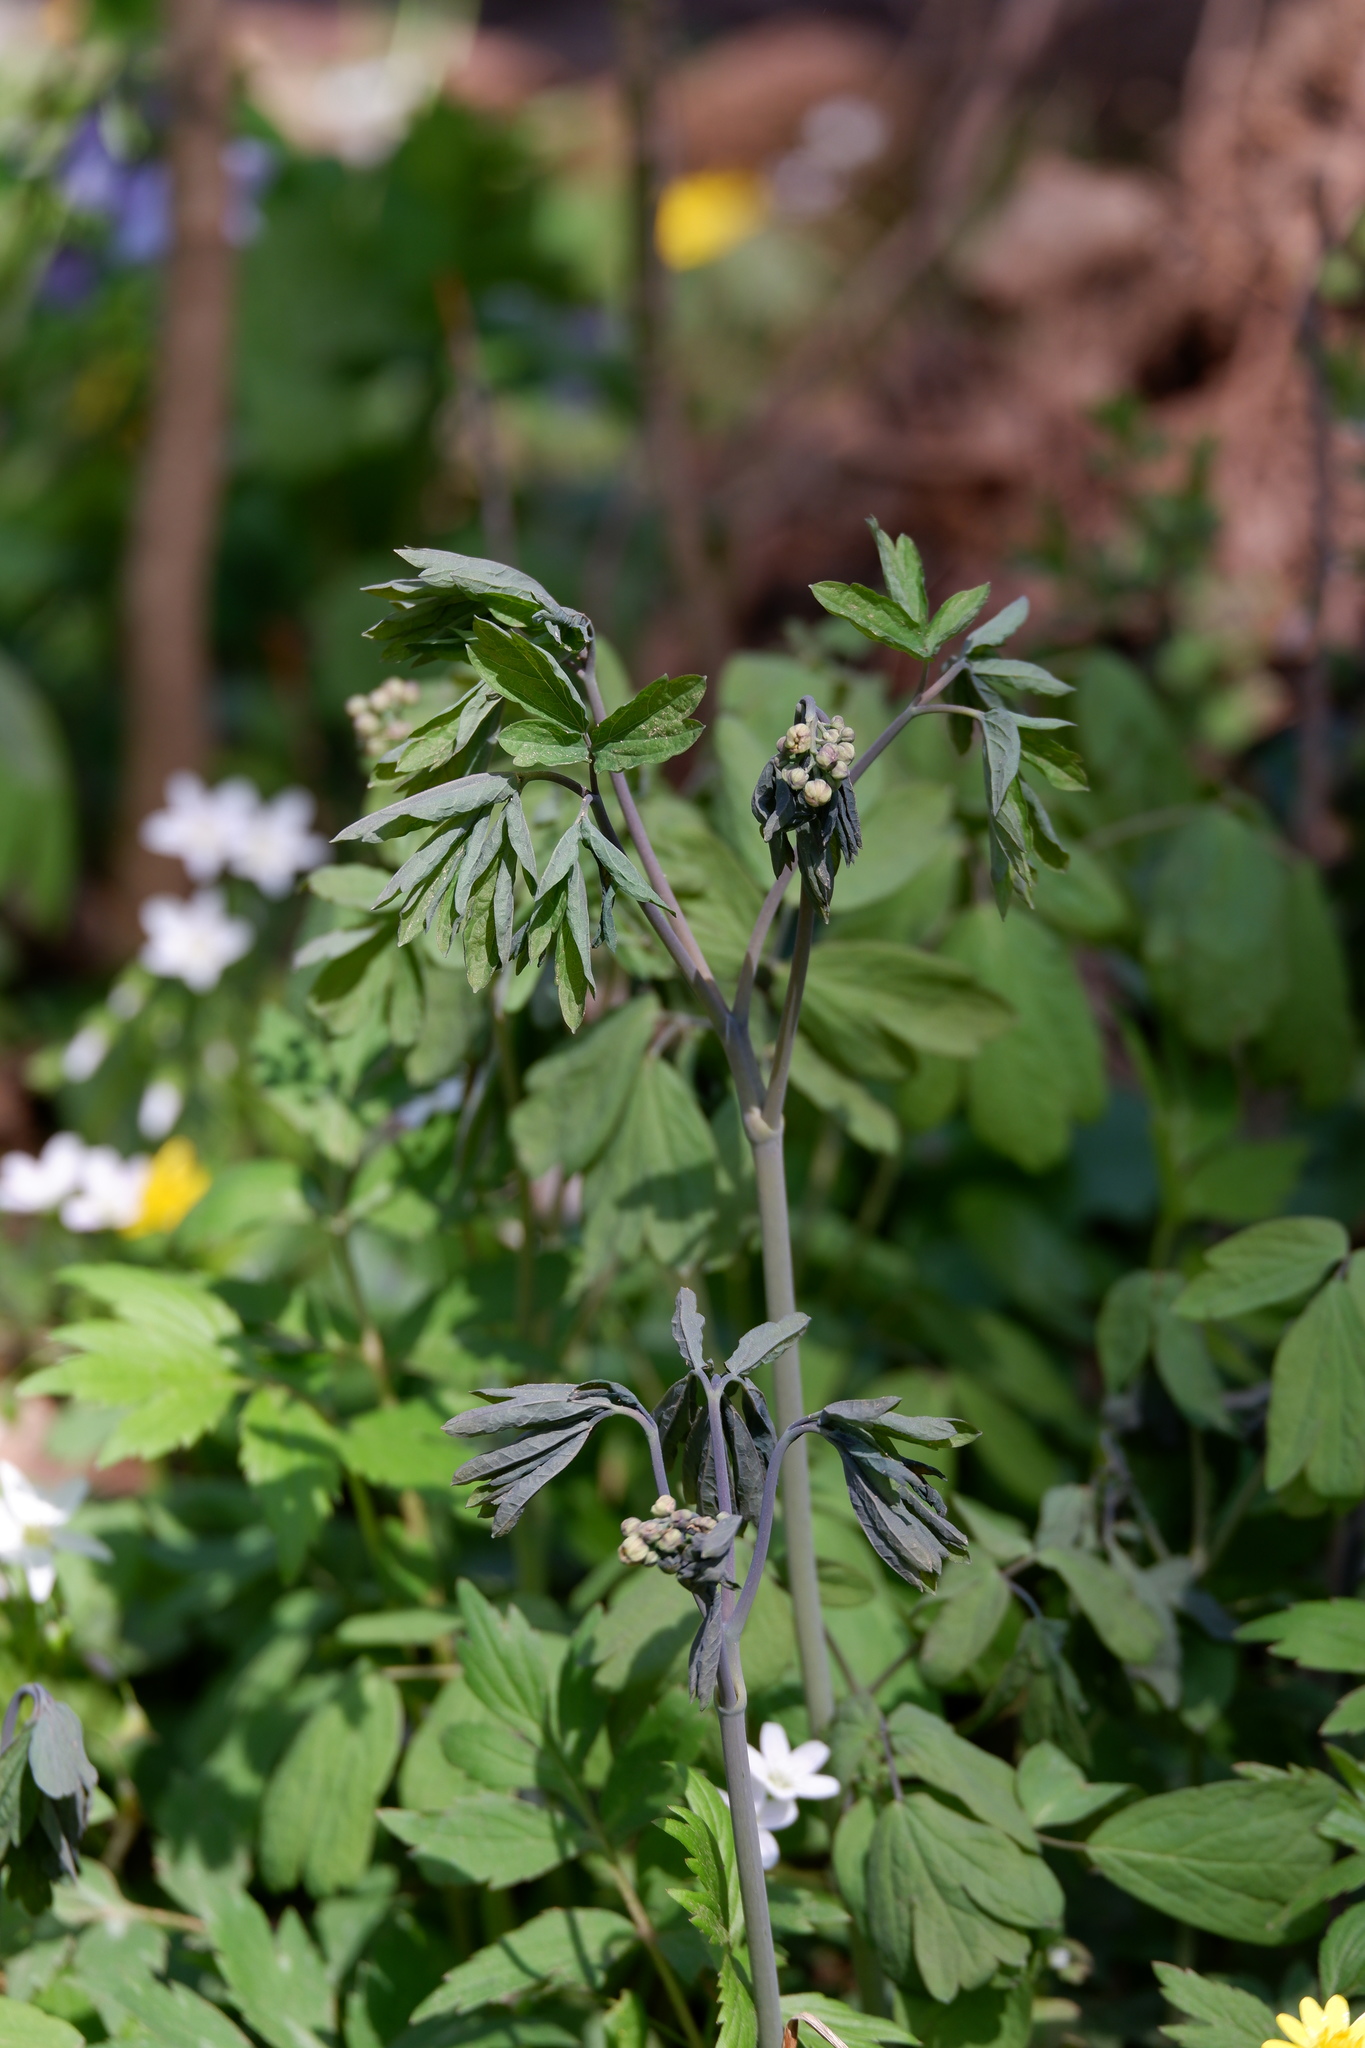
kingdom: Plantae
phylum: Tracheophyta
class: Magnoliopsida
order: Ranunculales
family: Berberidaceae
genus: Caulophyllum
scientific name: Caulophyllum thalictroides
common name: Blue cohosh
